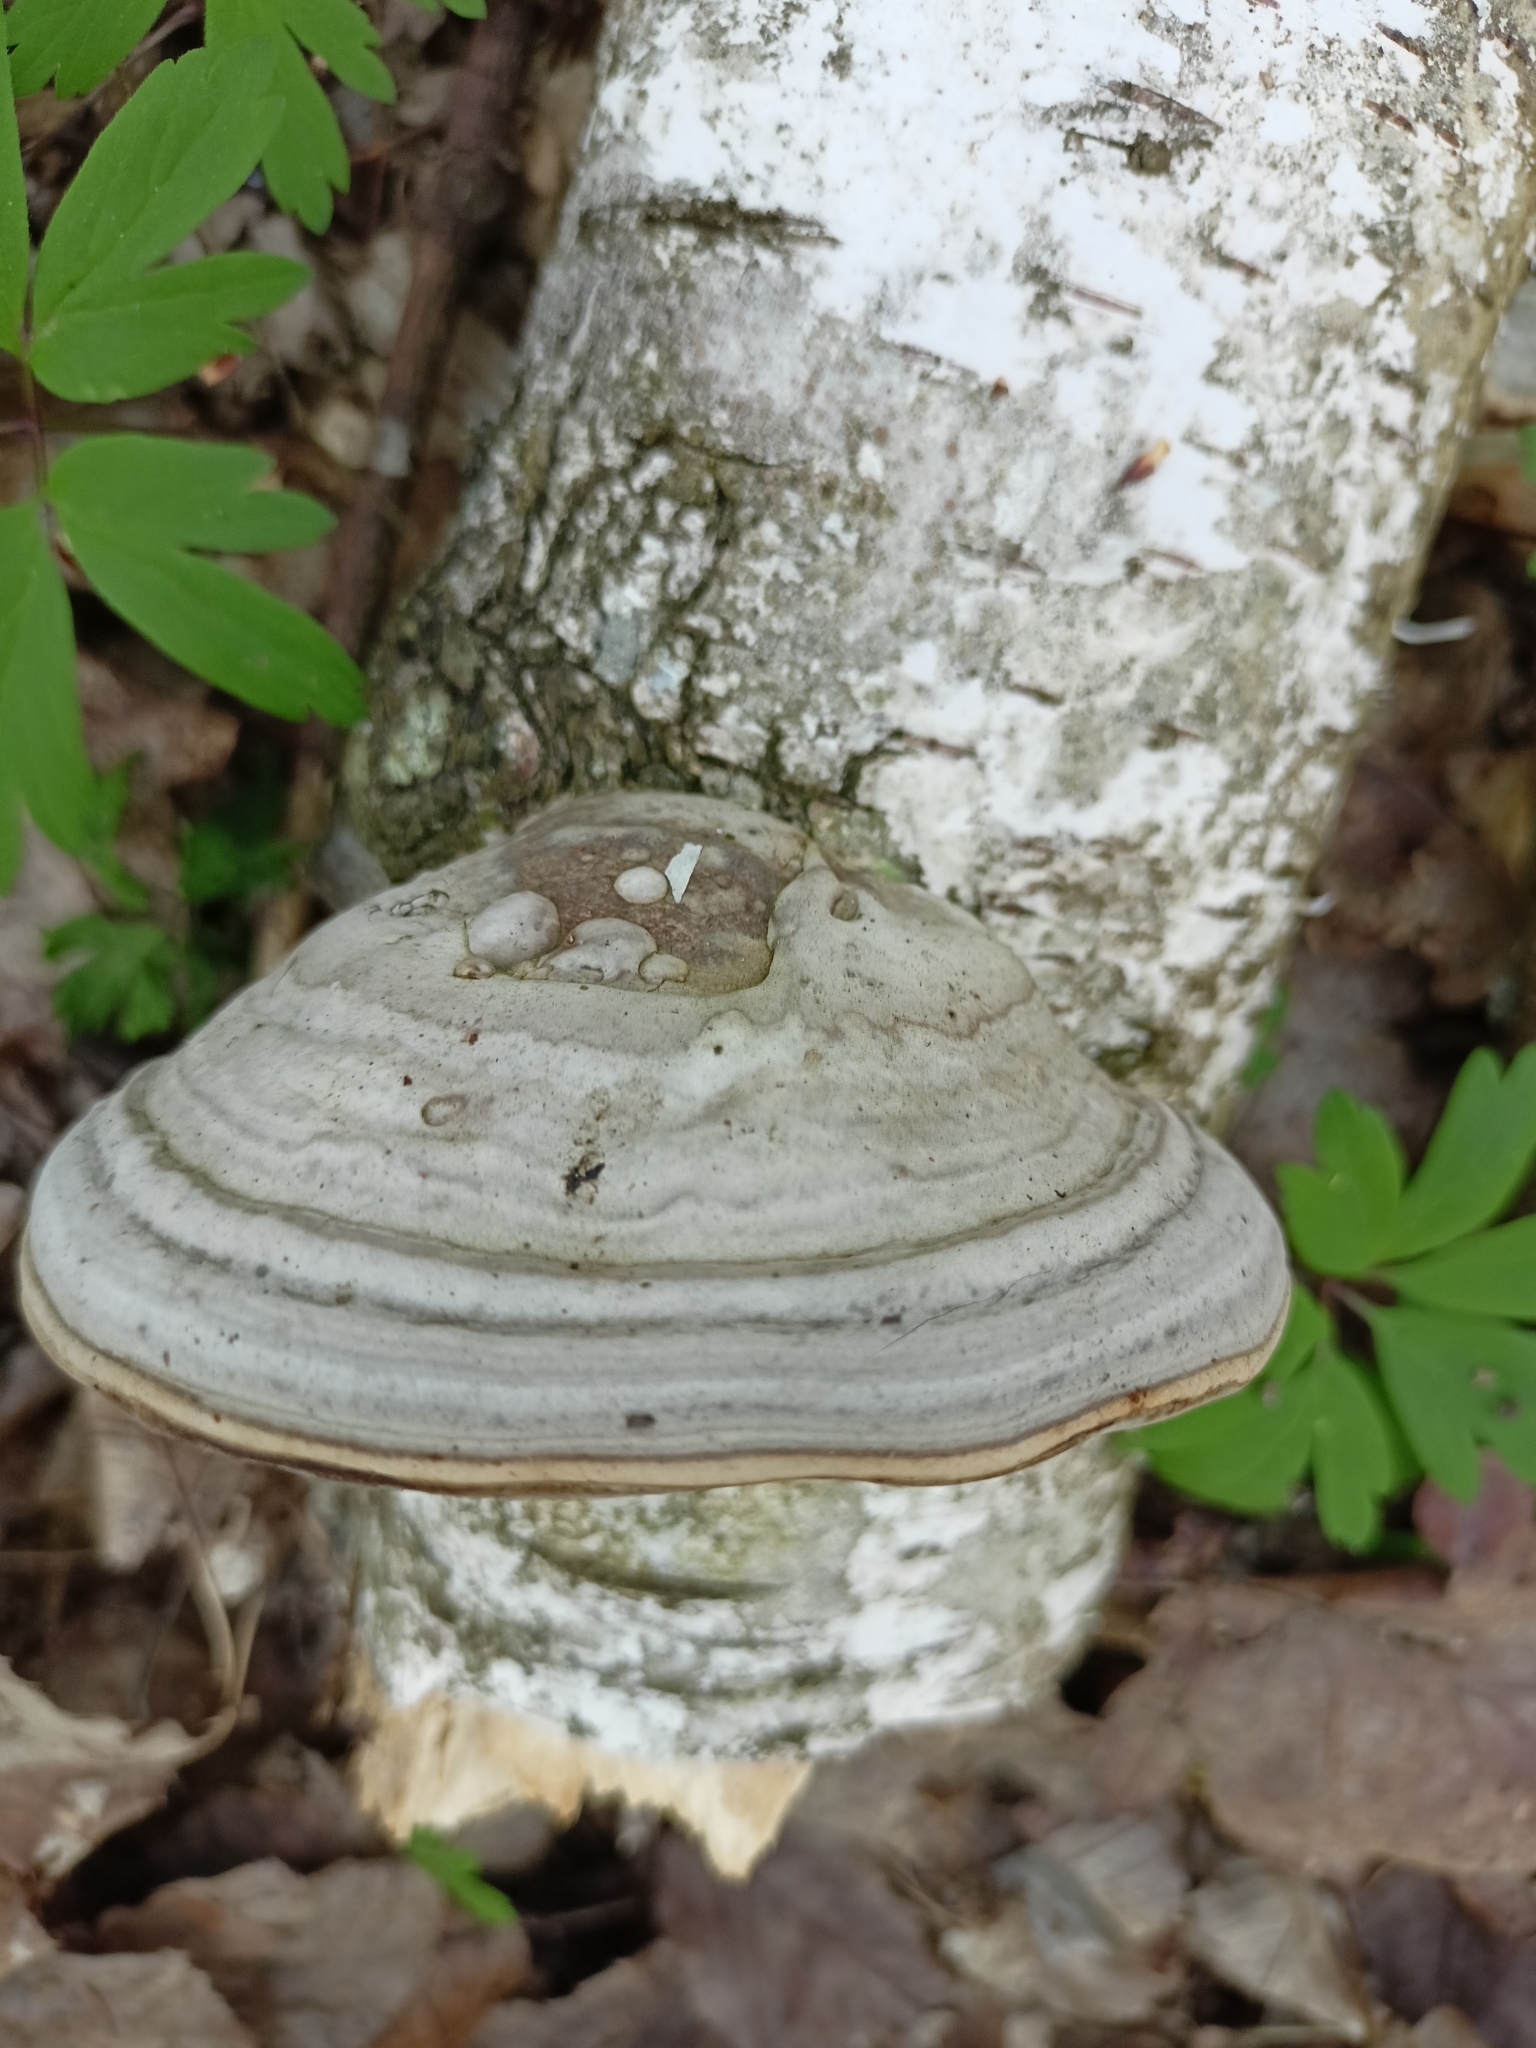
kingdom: Fungi
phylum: Basidiomycota
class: Agaricomycetes
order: Polyporales
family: Polyporaceae
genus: Fomes
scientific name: Fomes fomentarius
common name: Hoof fungus
